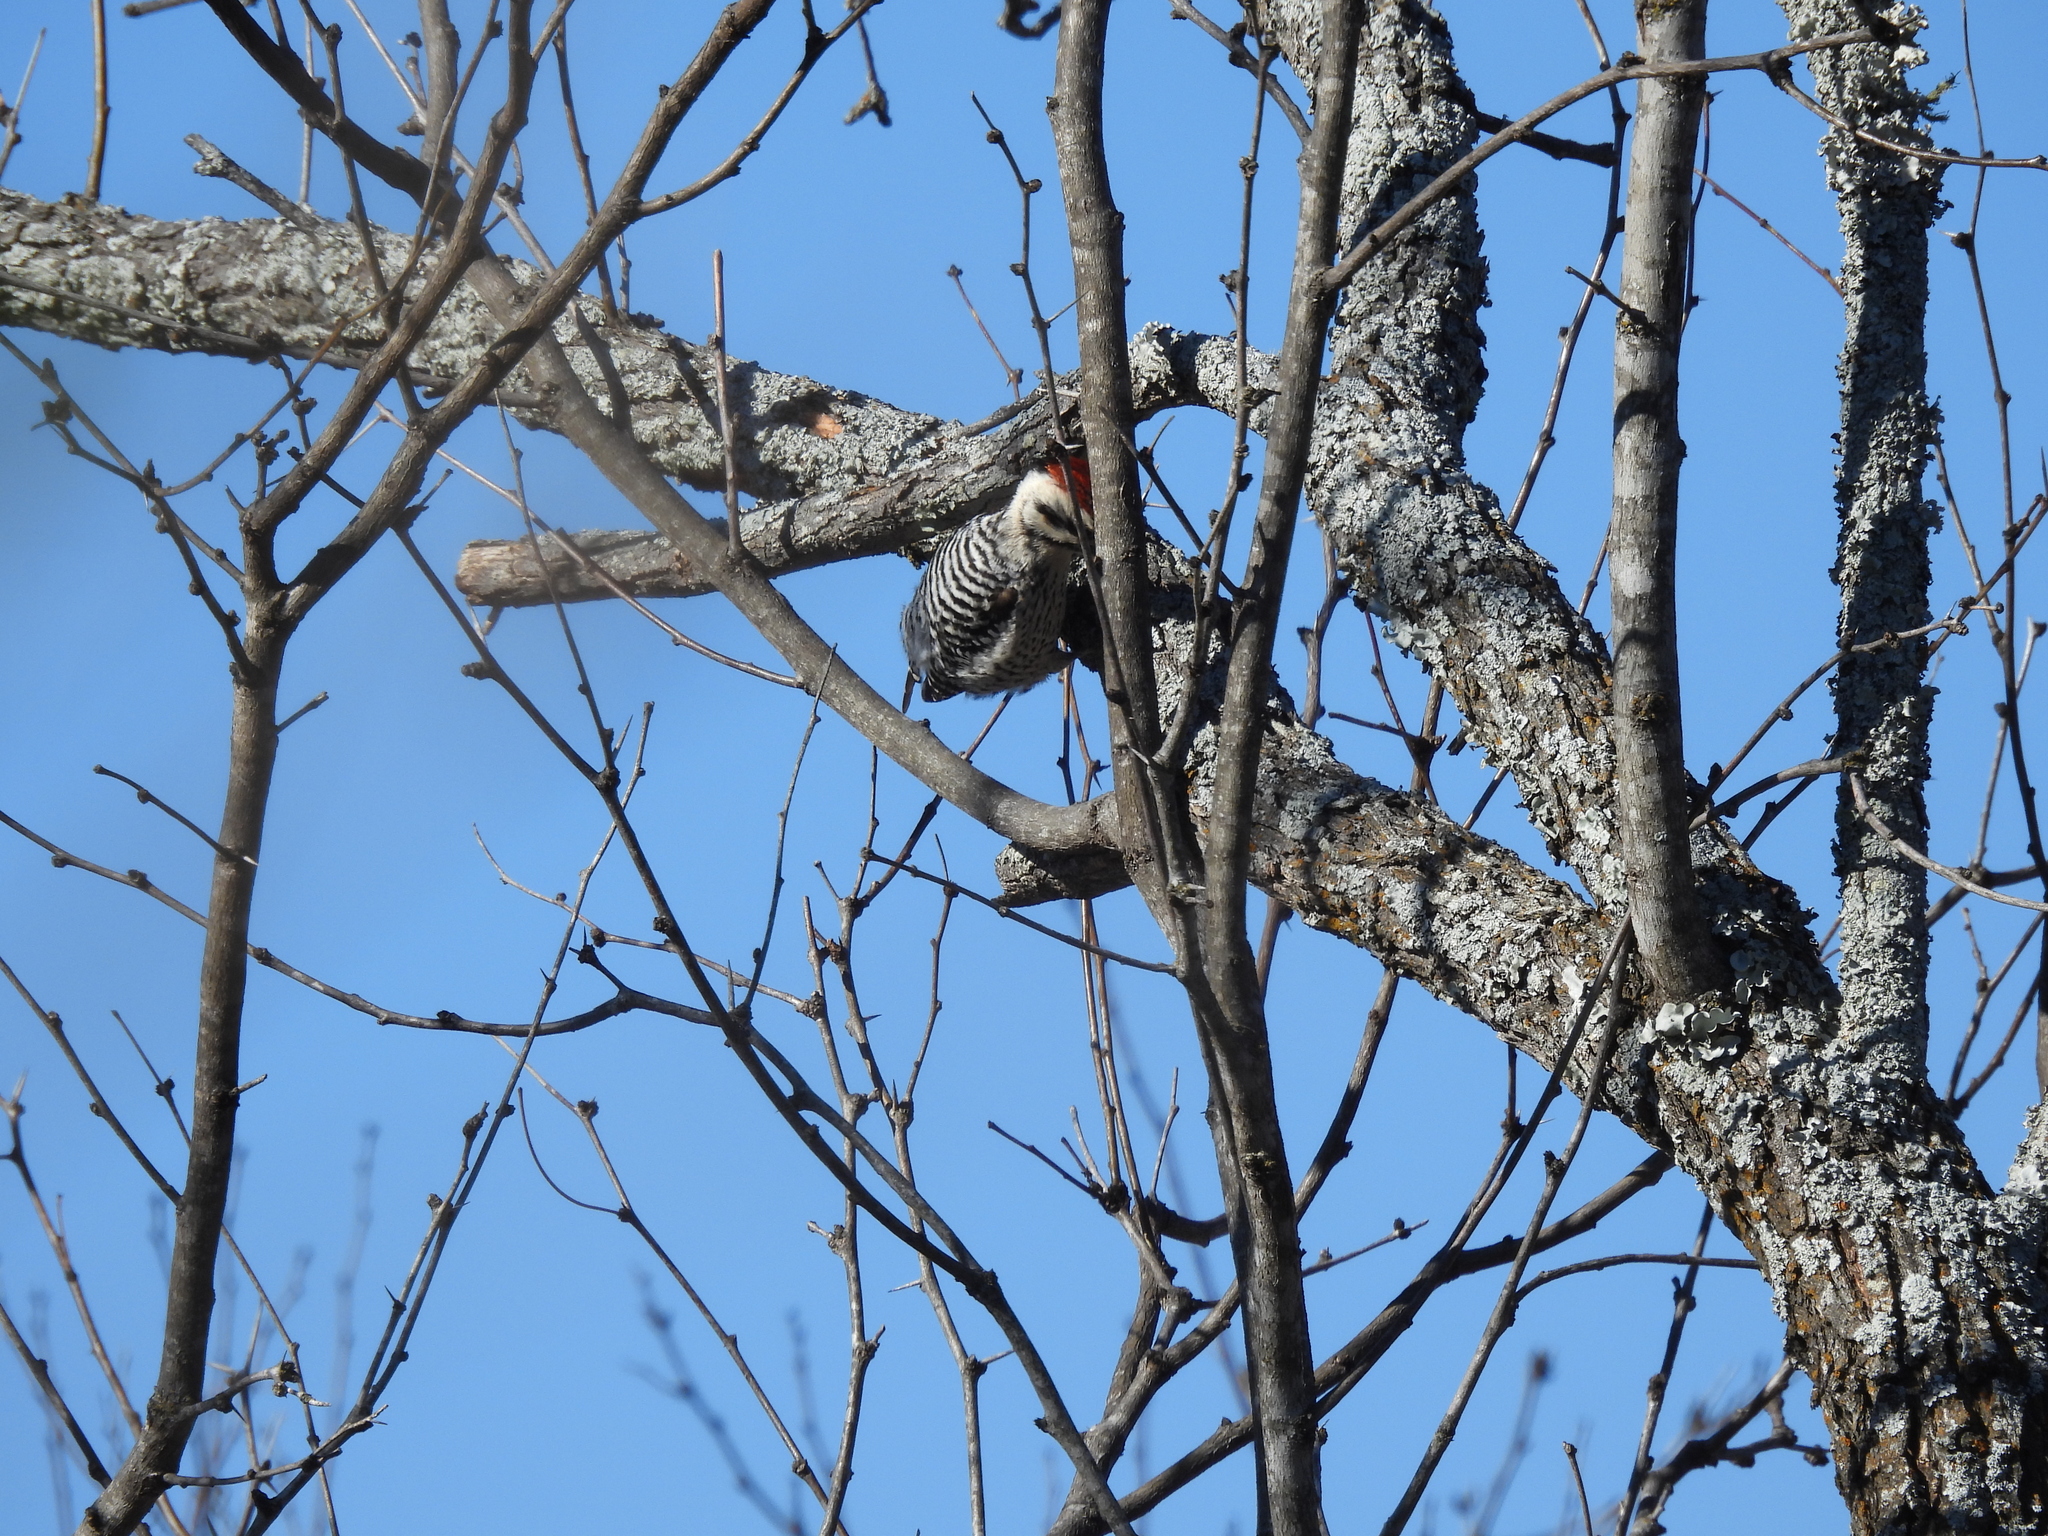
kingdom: Animalia
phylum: Chordata
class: Aves
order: Piciformes
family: Picidae
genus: Dryobates
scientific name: Dryobates scalaris
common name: Ladder-backed woodpecker
